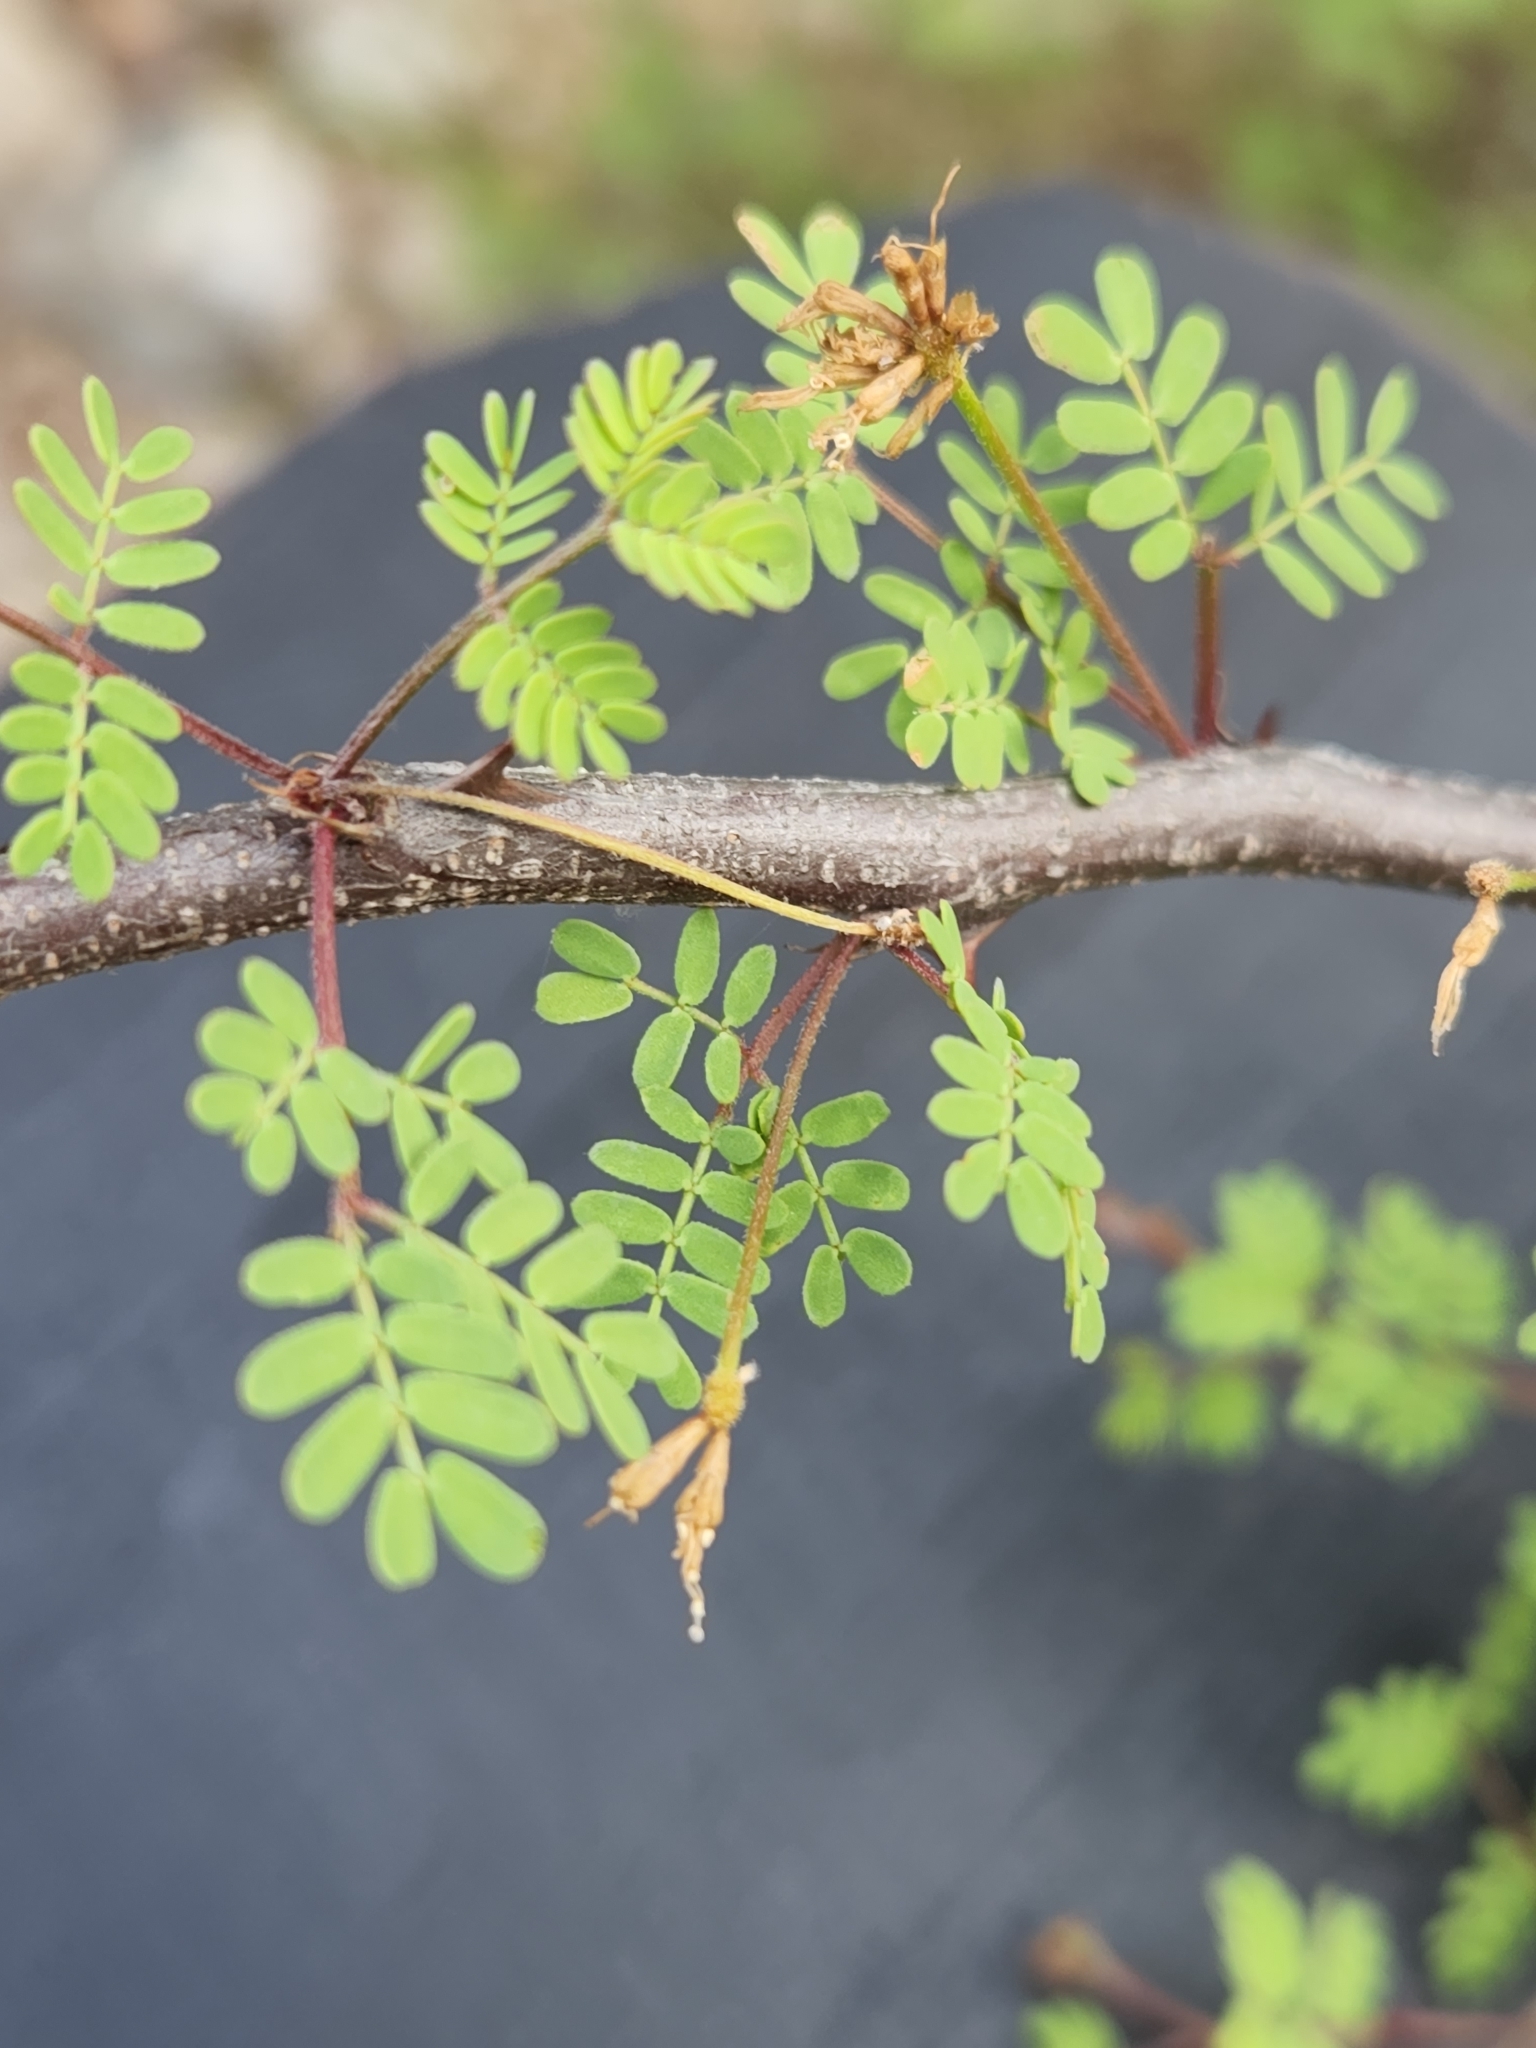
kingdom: Plantae
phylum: Tracheophyta
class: Magnoliopsida
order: Fabales
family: Fabaceae
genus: Mimosa
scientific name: Mimosa texana
